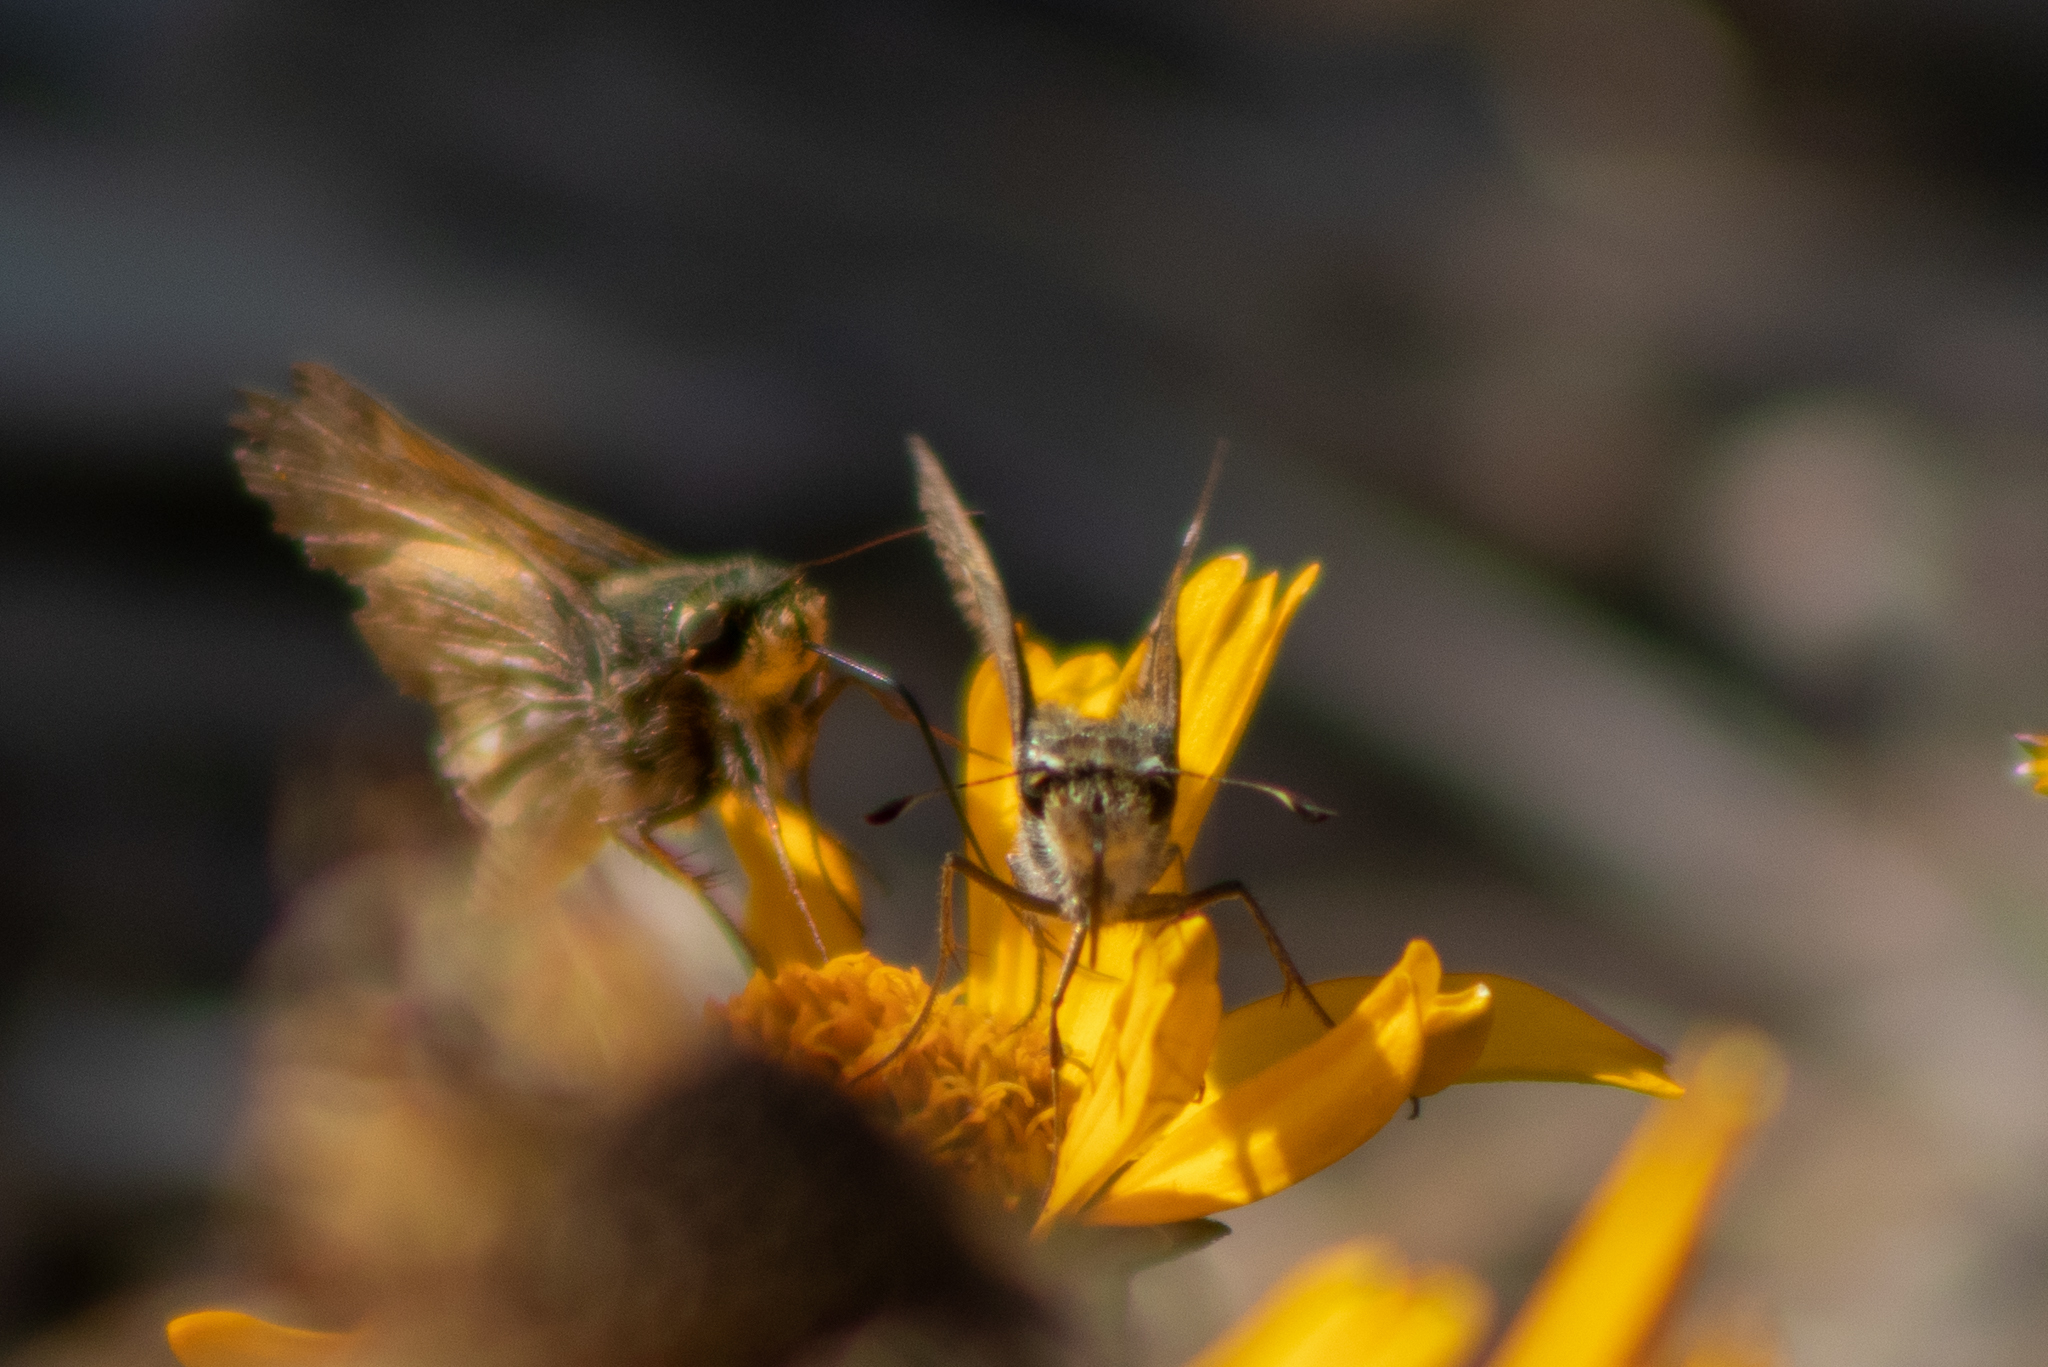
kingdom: Animalia
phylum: Arthropoda
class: Insecta
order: Lepidoptera
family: Hesperiidae
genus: Atalopedes
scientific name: Atalopedes
